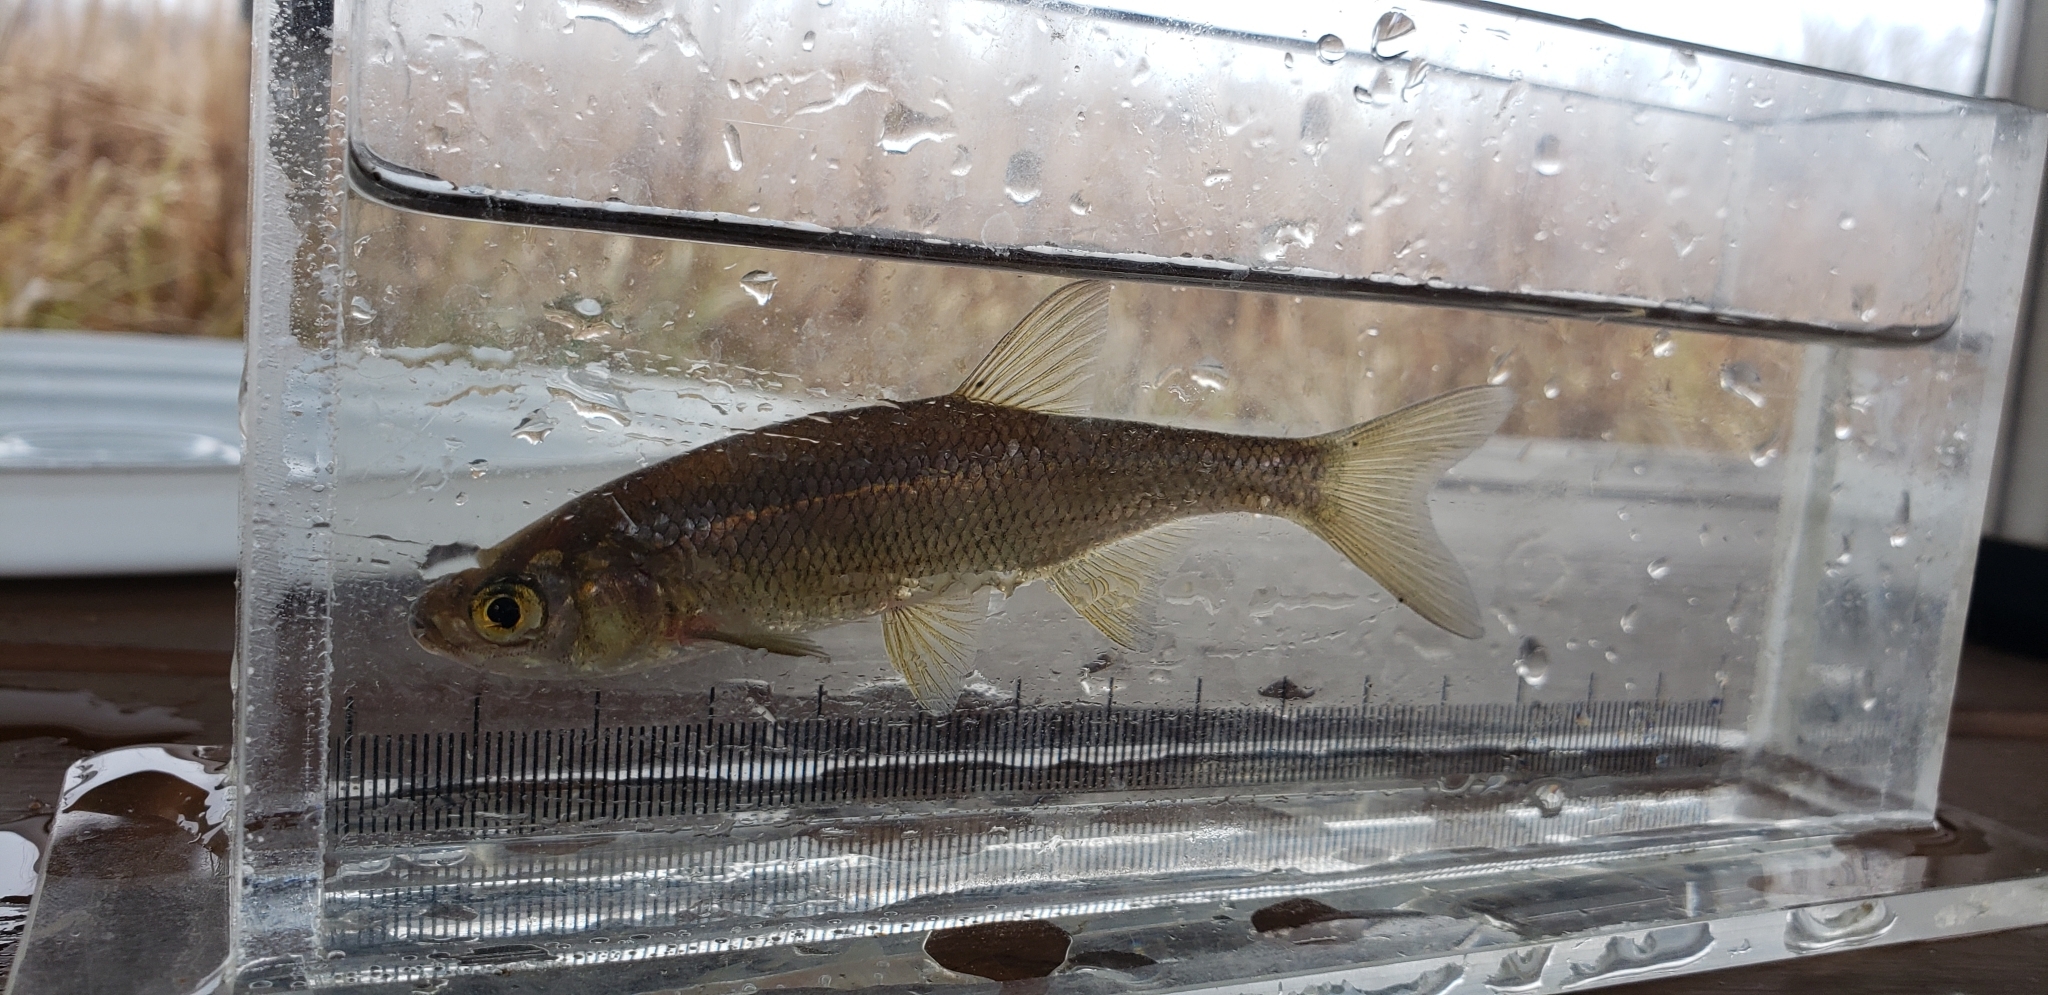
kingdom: Animalia
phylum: Chordata
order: Cypriniformes
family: Cyprinidae
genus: Notemigonus
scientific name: Notemigonus crysoleucas
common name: Golden shiner
